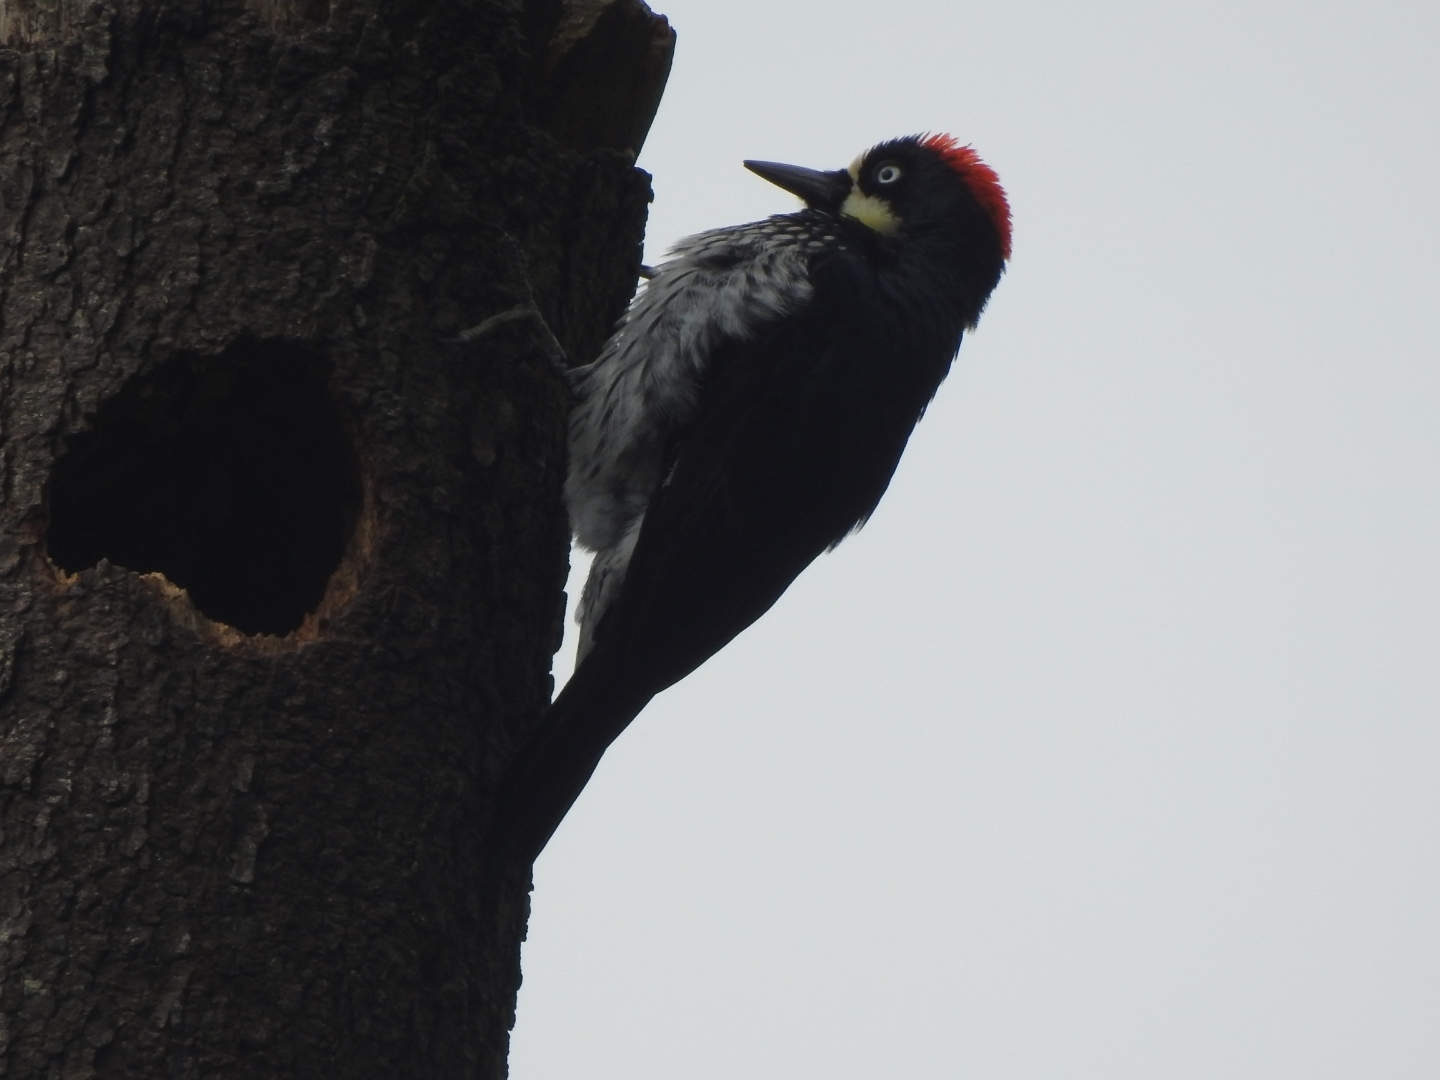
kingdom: Animalia
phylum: Chordata
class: Aves
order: Piciformes
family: Picidae
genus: Melanerpes
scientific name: Melanerpes formicivorus
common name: Acorn woodpecker
